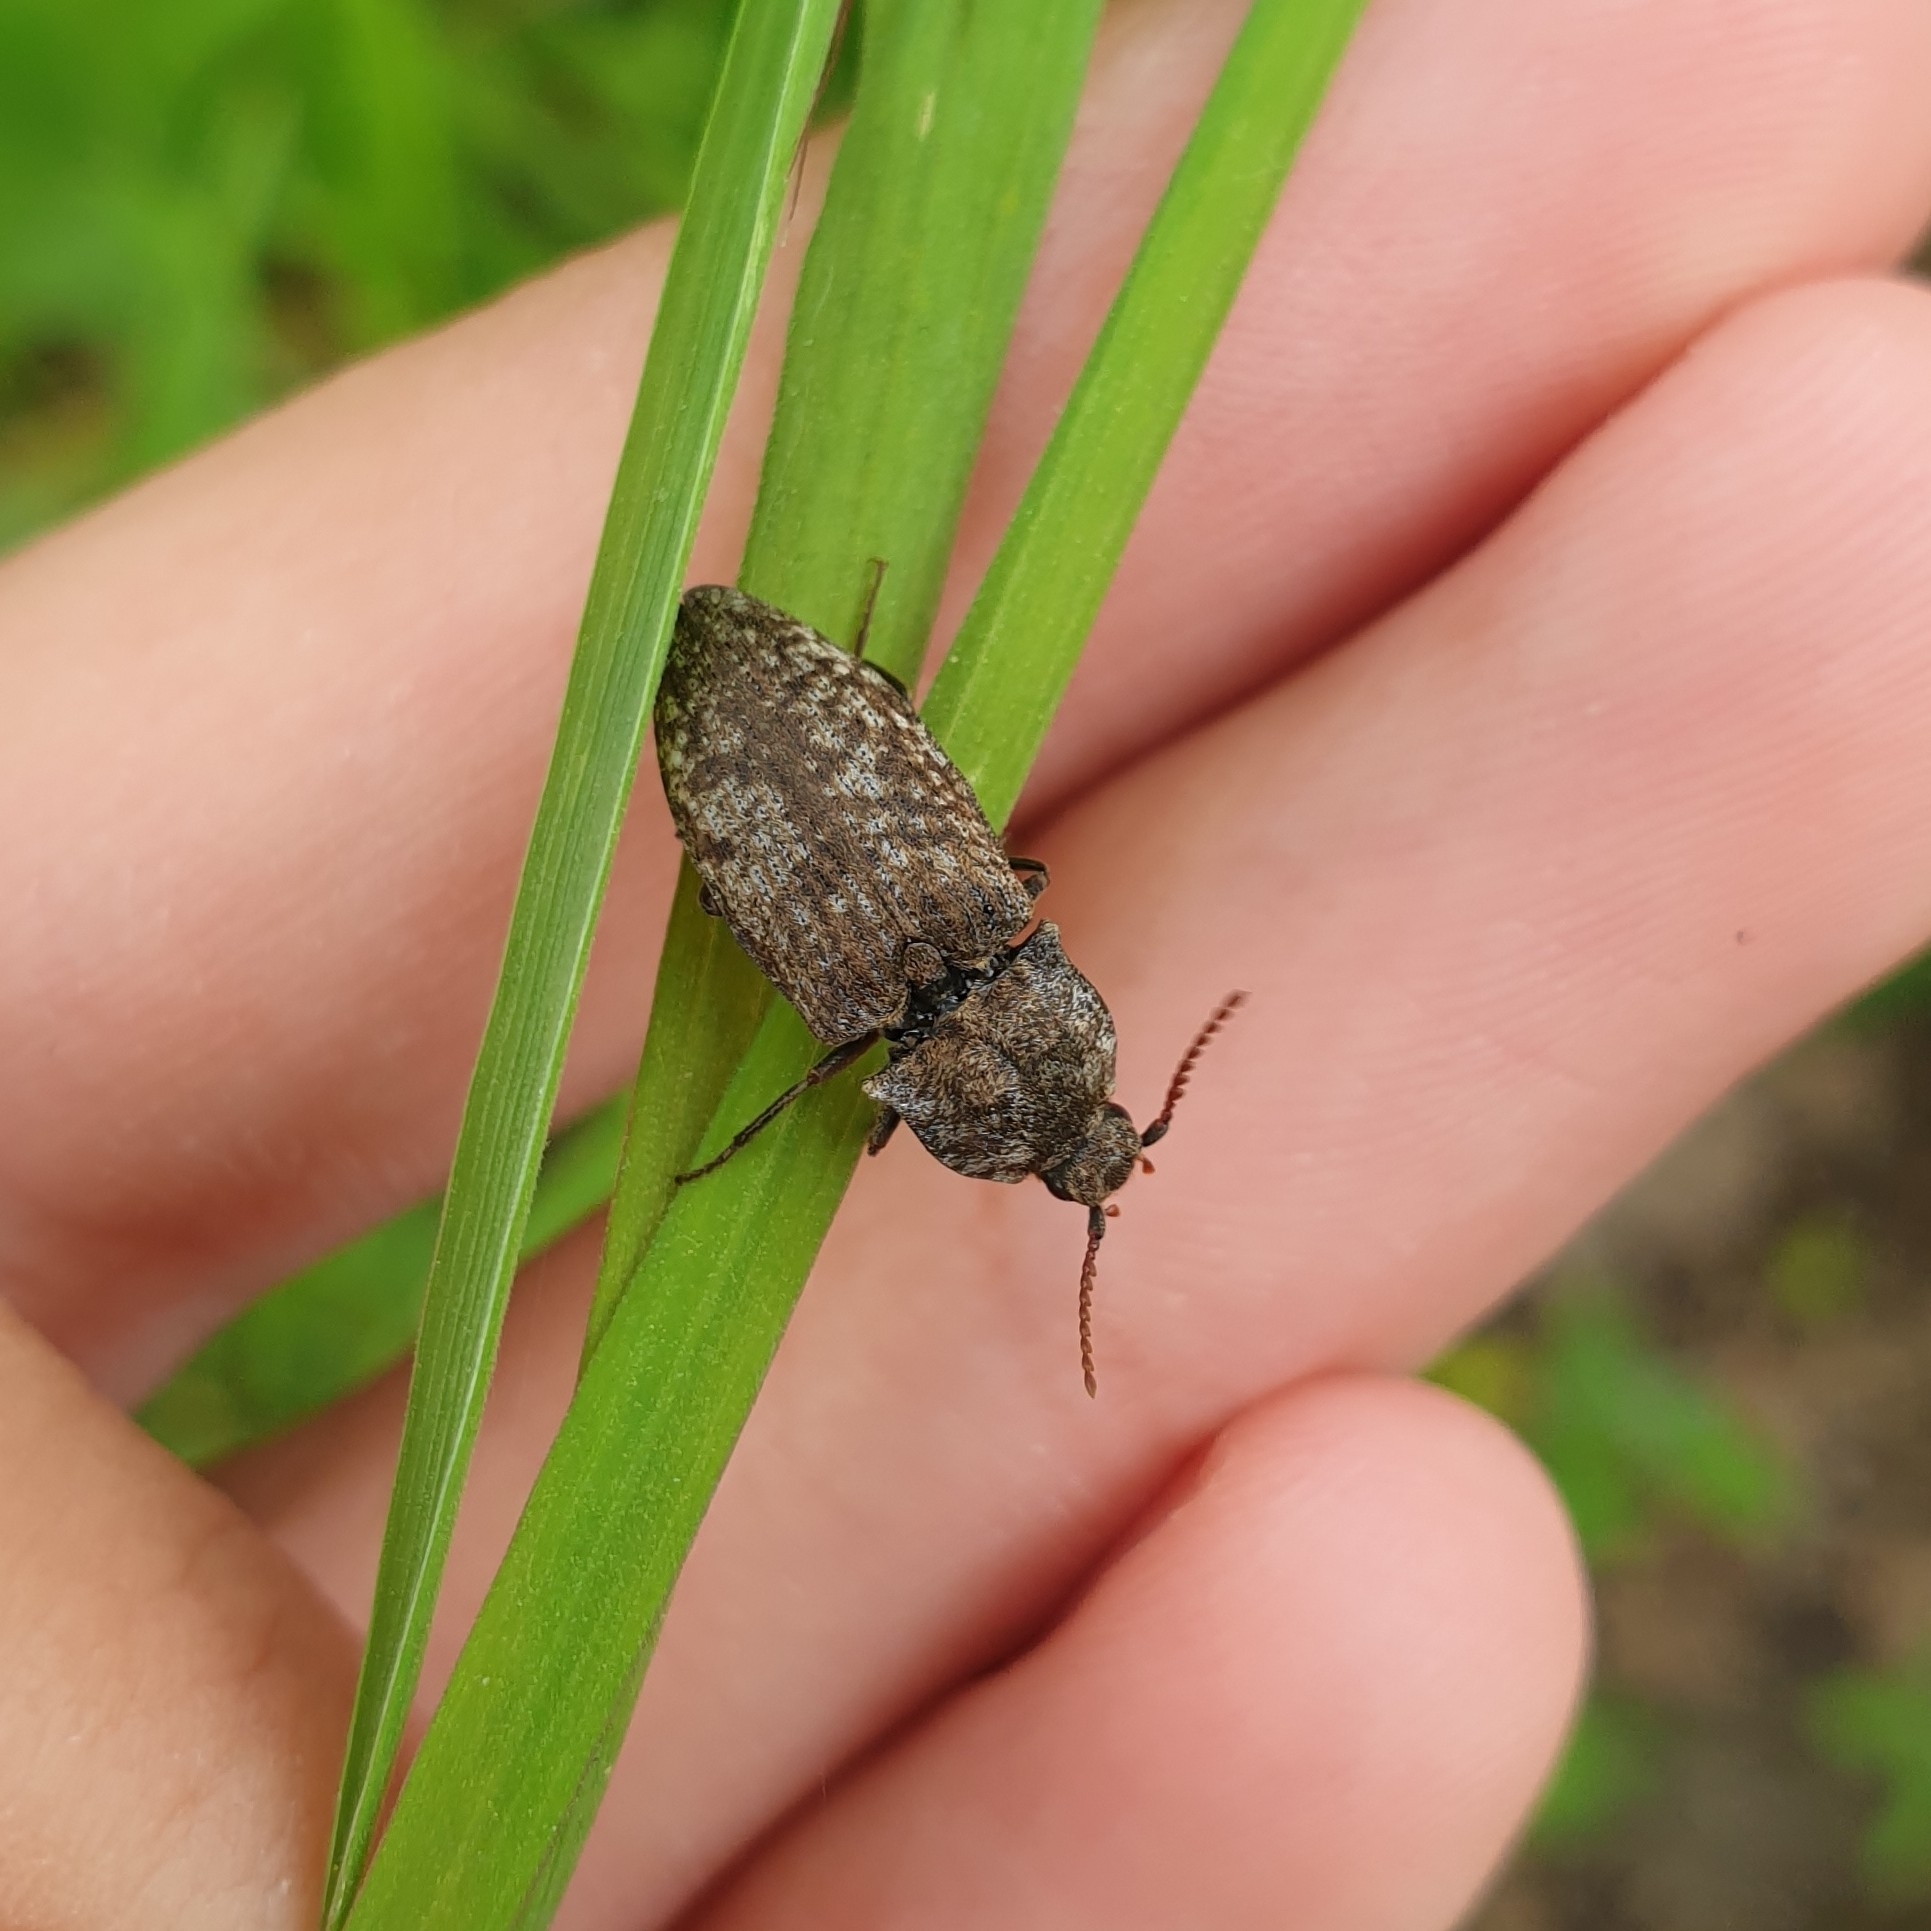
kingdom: Animalia
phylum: Arthropoda
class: Insecta
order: Coleoptera
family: Elateridae
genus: Agrypnus
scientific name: Agrypnus murinus
